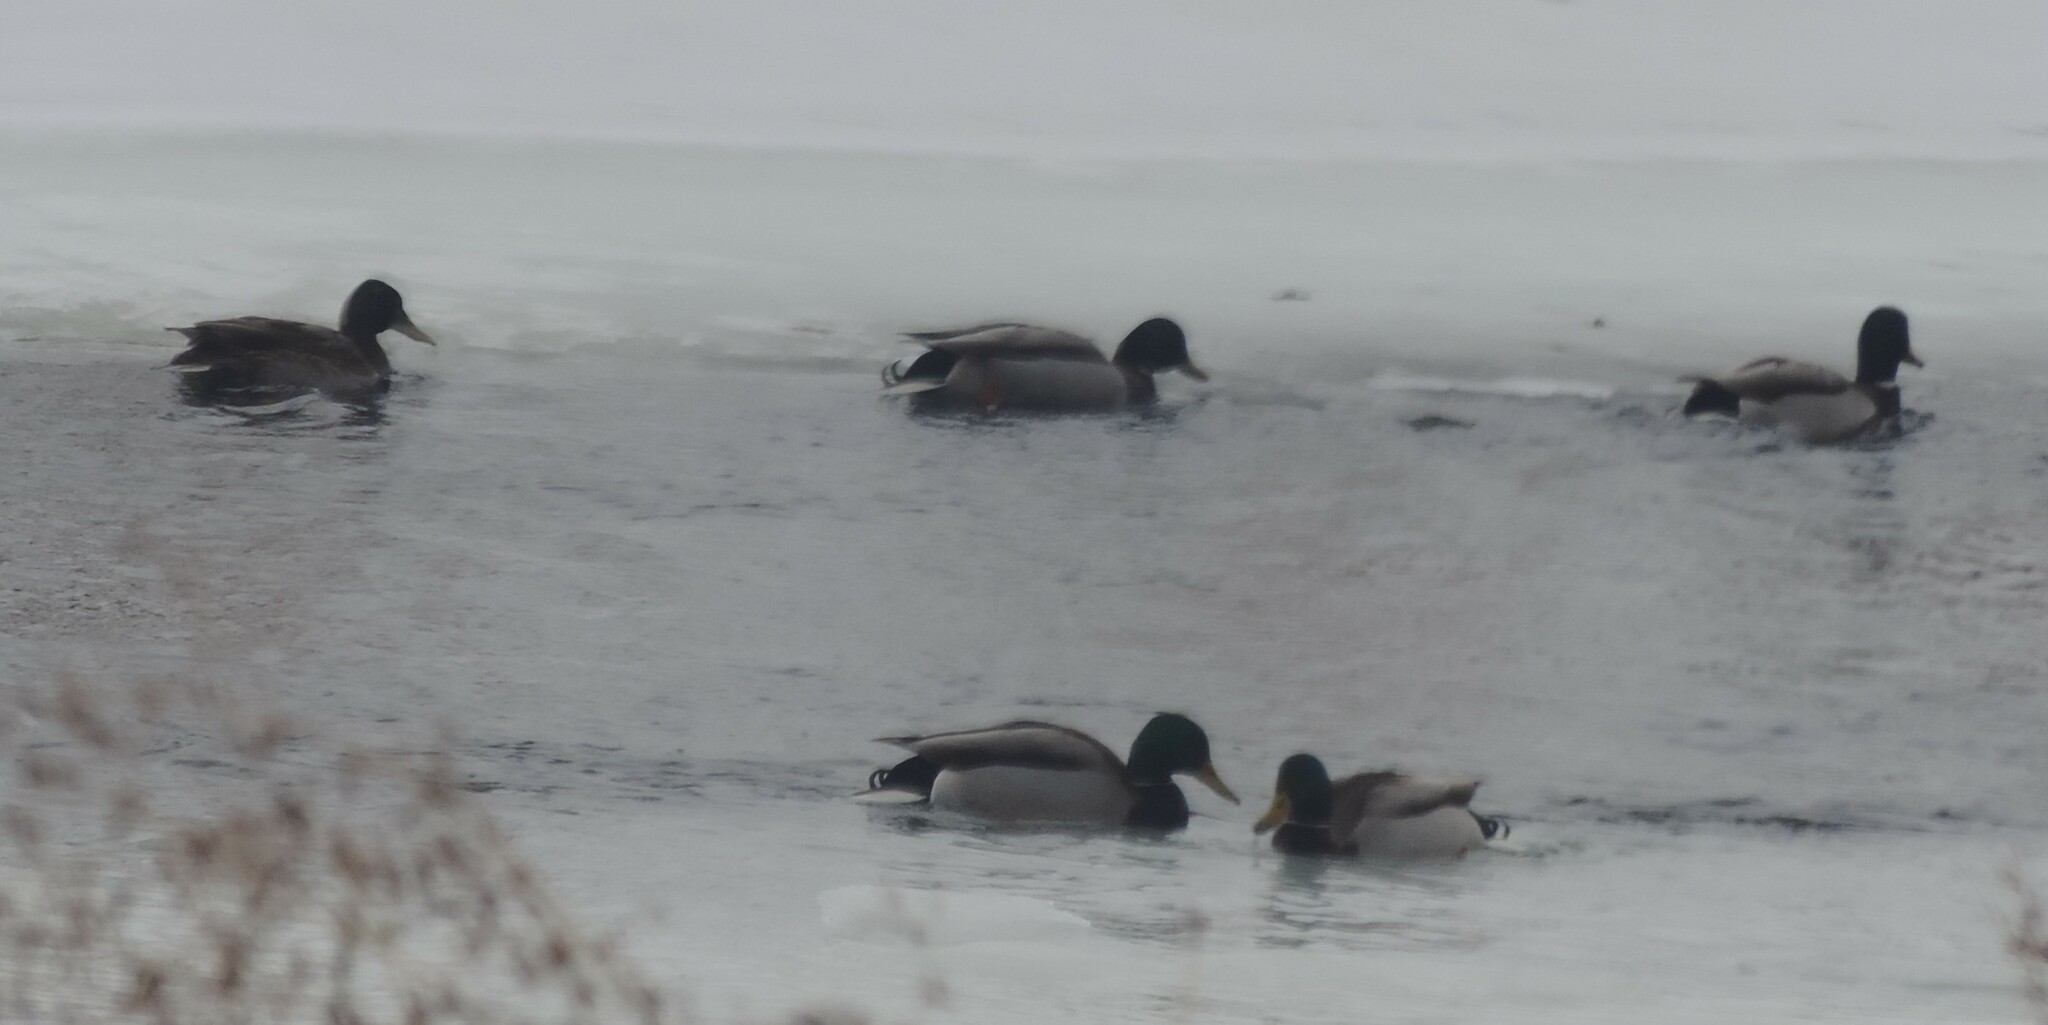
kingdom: Animalia
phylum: Chordata
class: Aves
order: Anseriformes
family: Anatidae
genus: Anas
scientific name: Anas platyrhynchos
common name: Mallard
